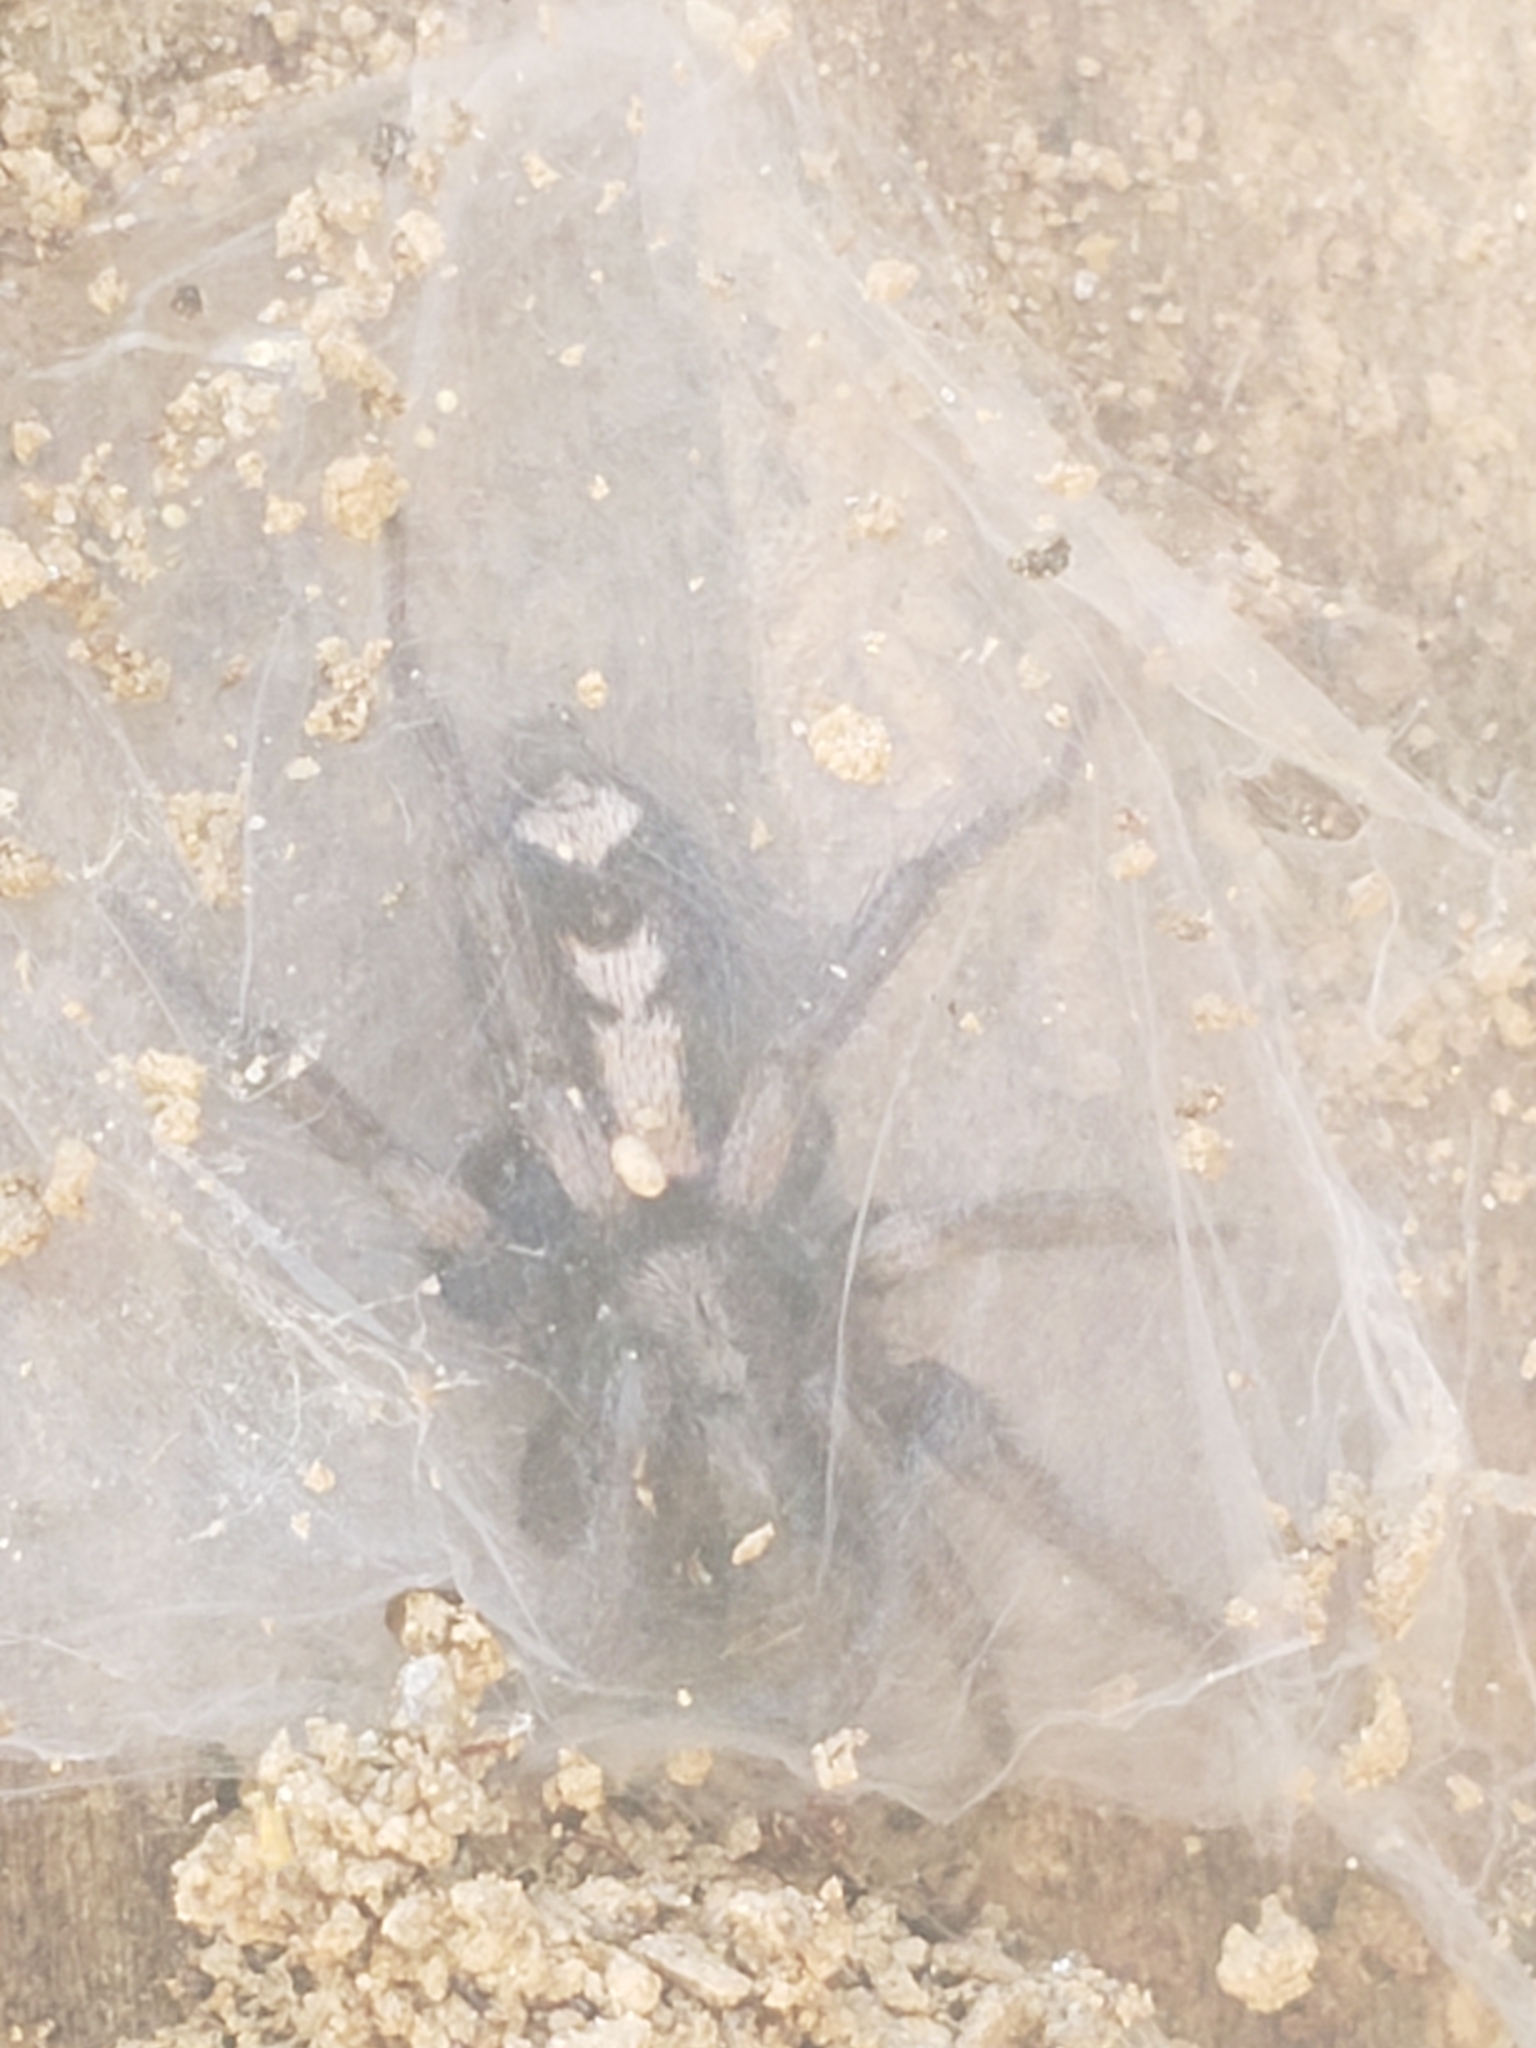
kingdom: Animalia
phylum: Arthropoda
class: Arachnida
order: Araneae
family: Gnaphosidae
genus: Herpyllus
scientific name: Herpyllus ecclesiasticus
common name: Eastern parson spider
